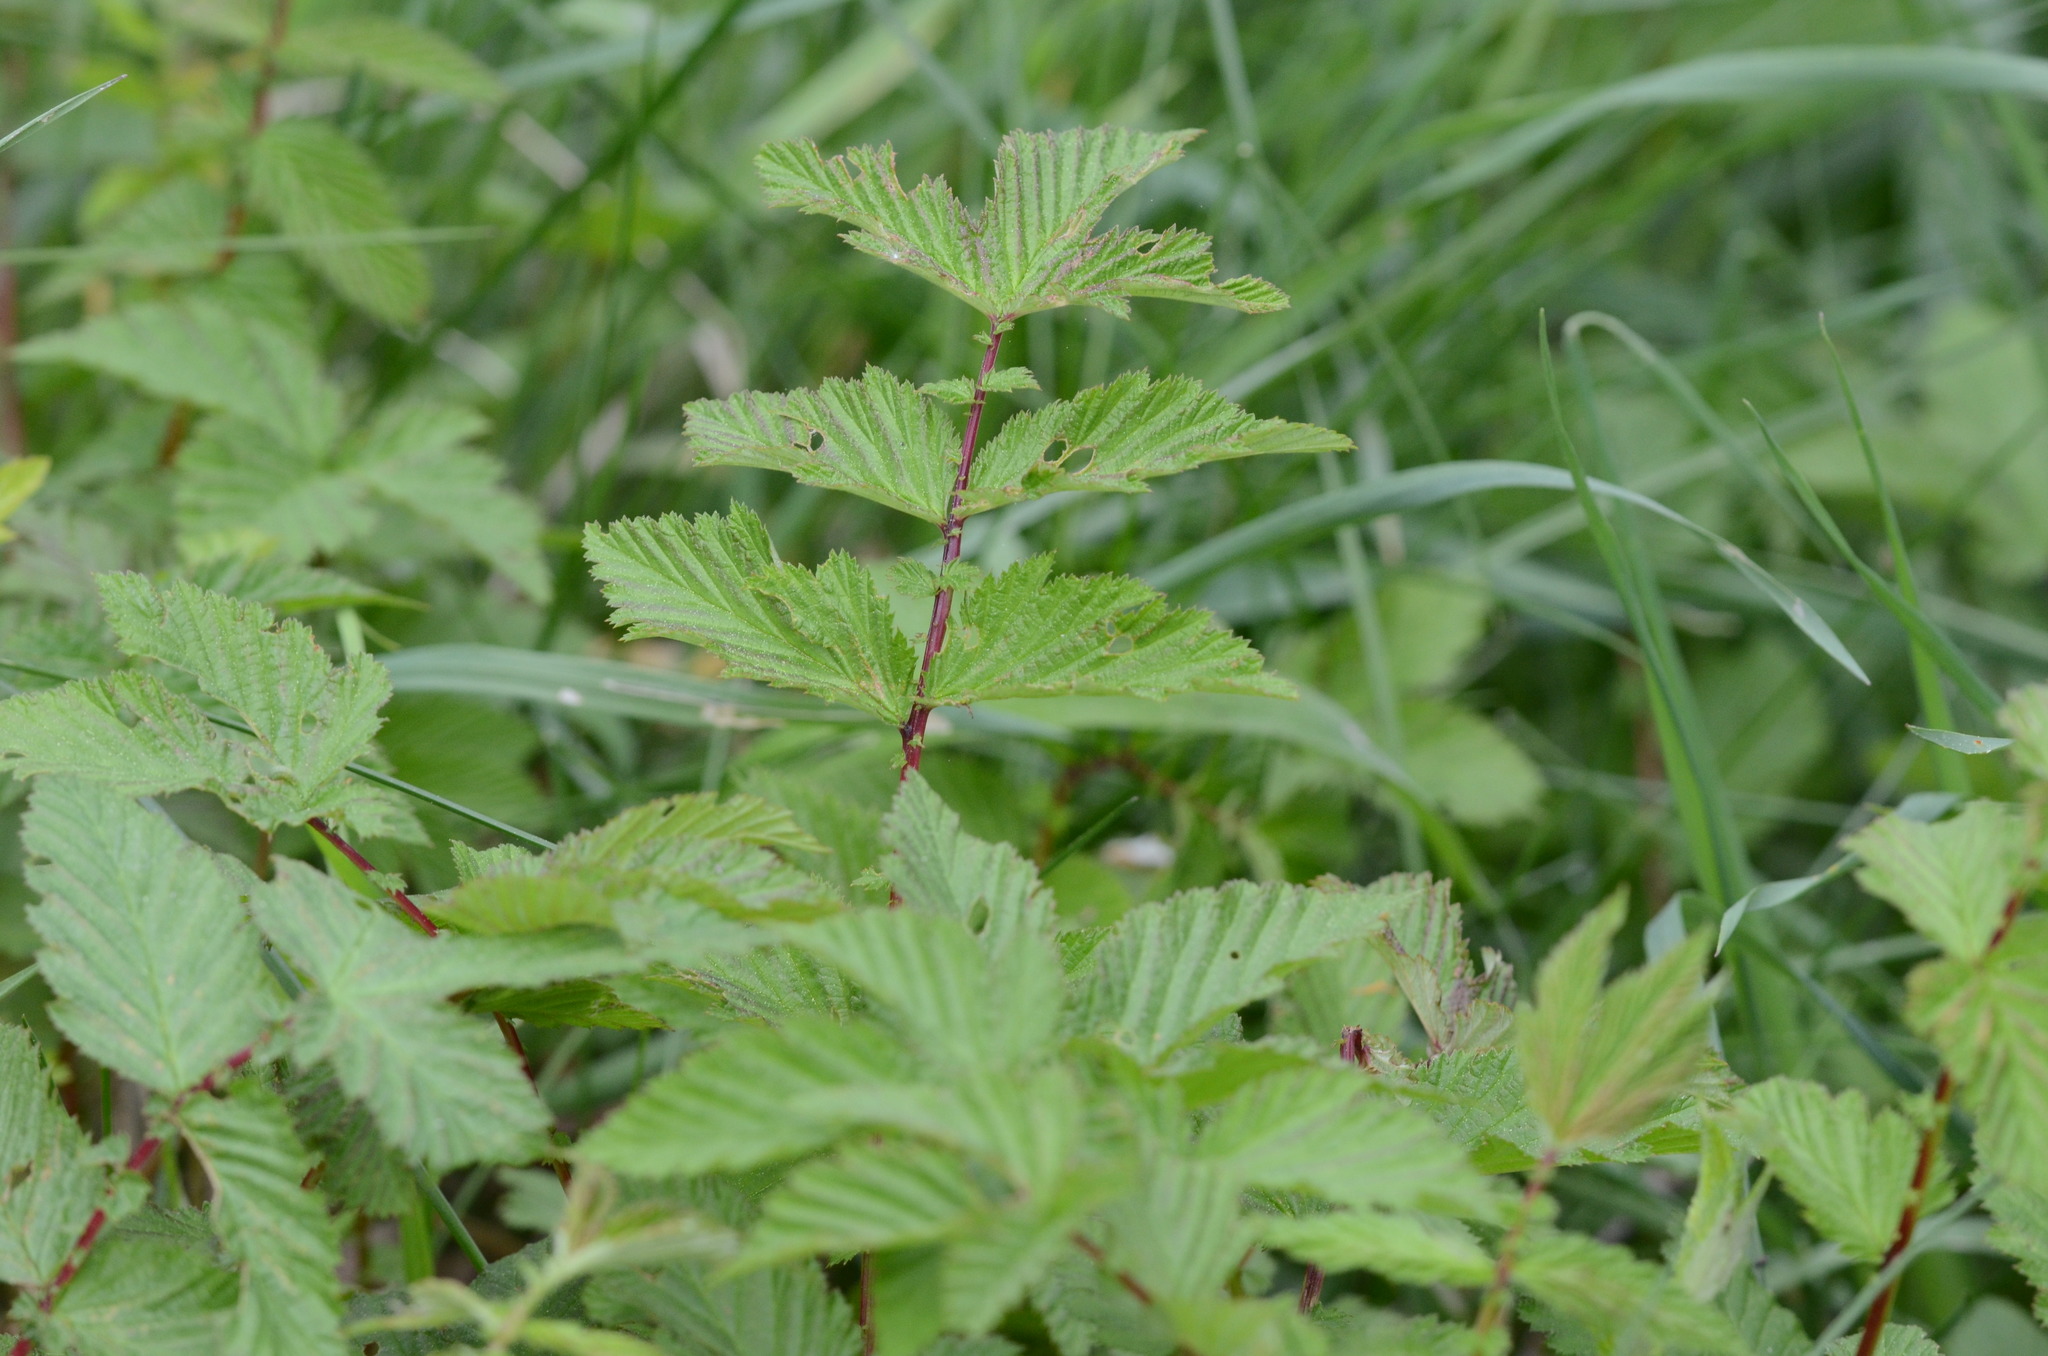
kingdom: Plantae
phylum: Tracheophyta
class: Magnoliopsida
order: Rosales
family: Rosaceae
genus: Filipendula
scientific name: Filipendula ulmaria
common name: Meadowsweet
